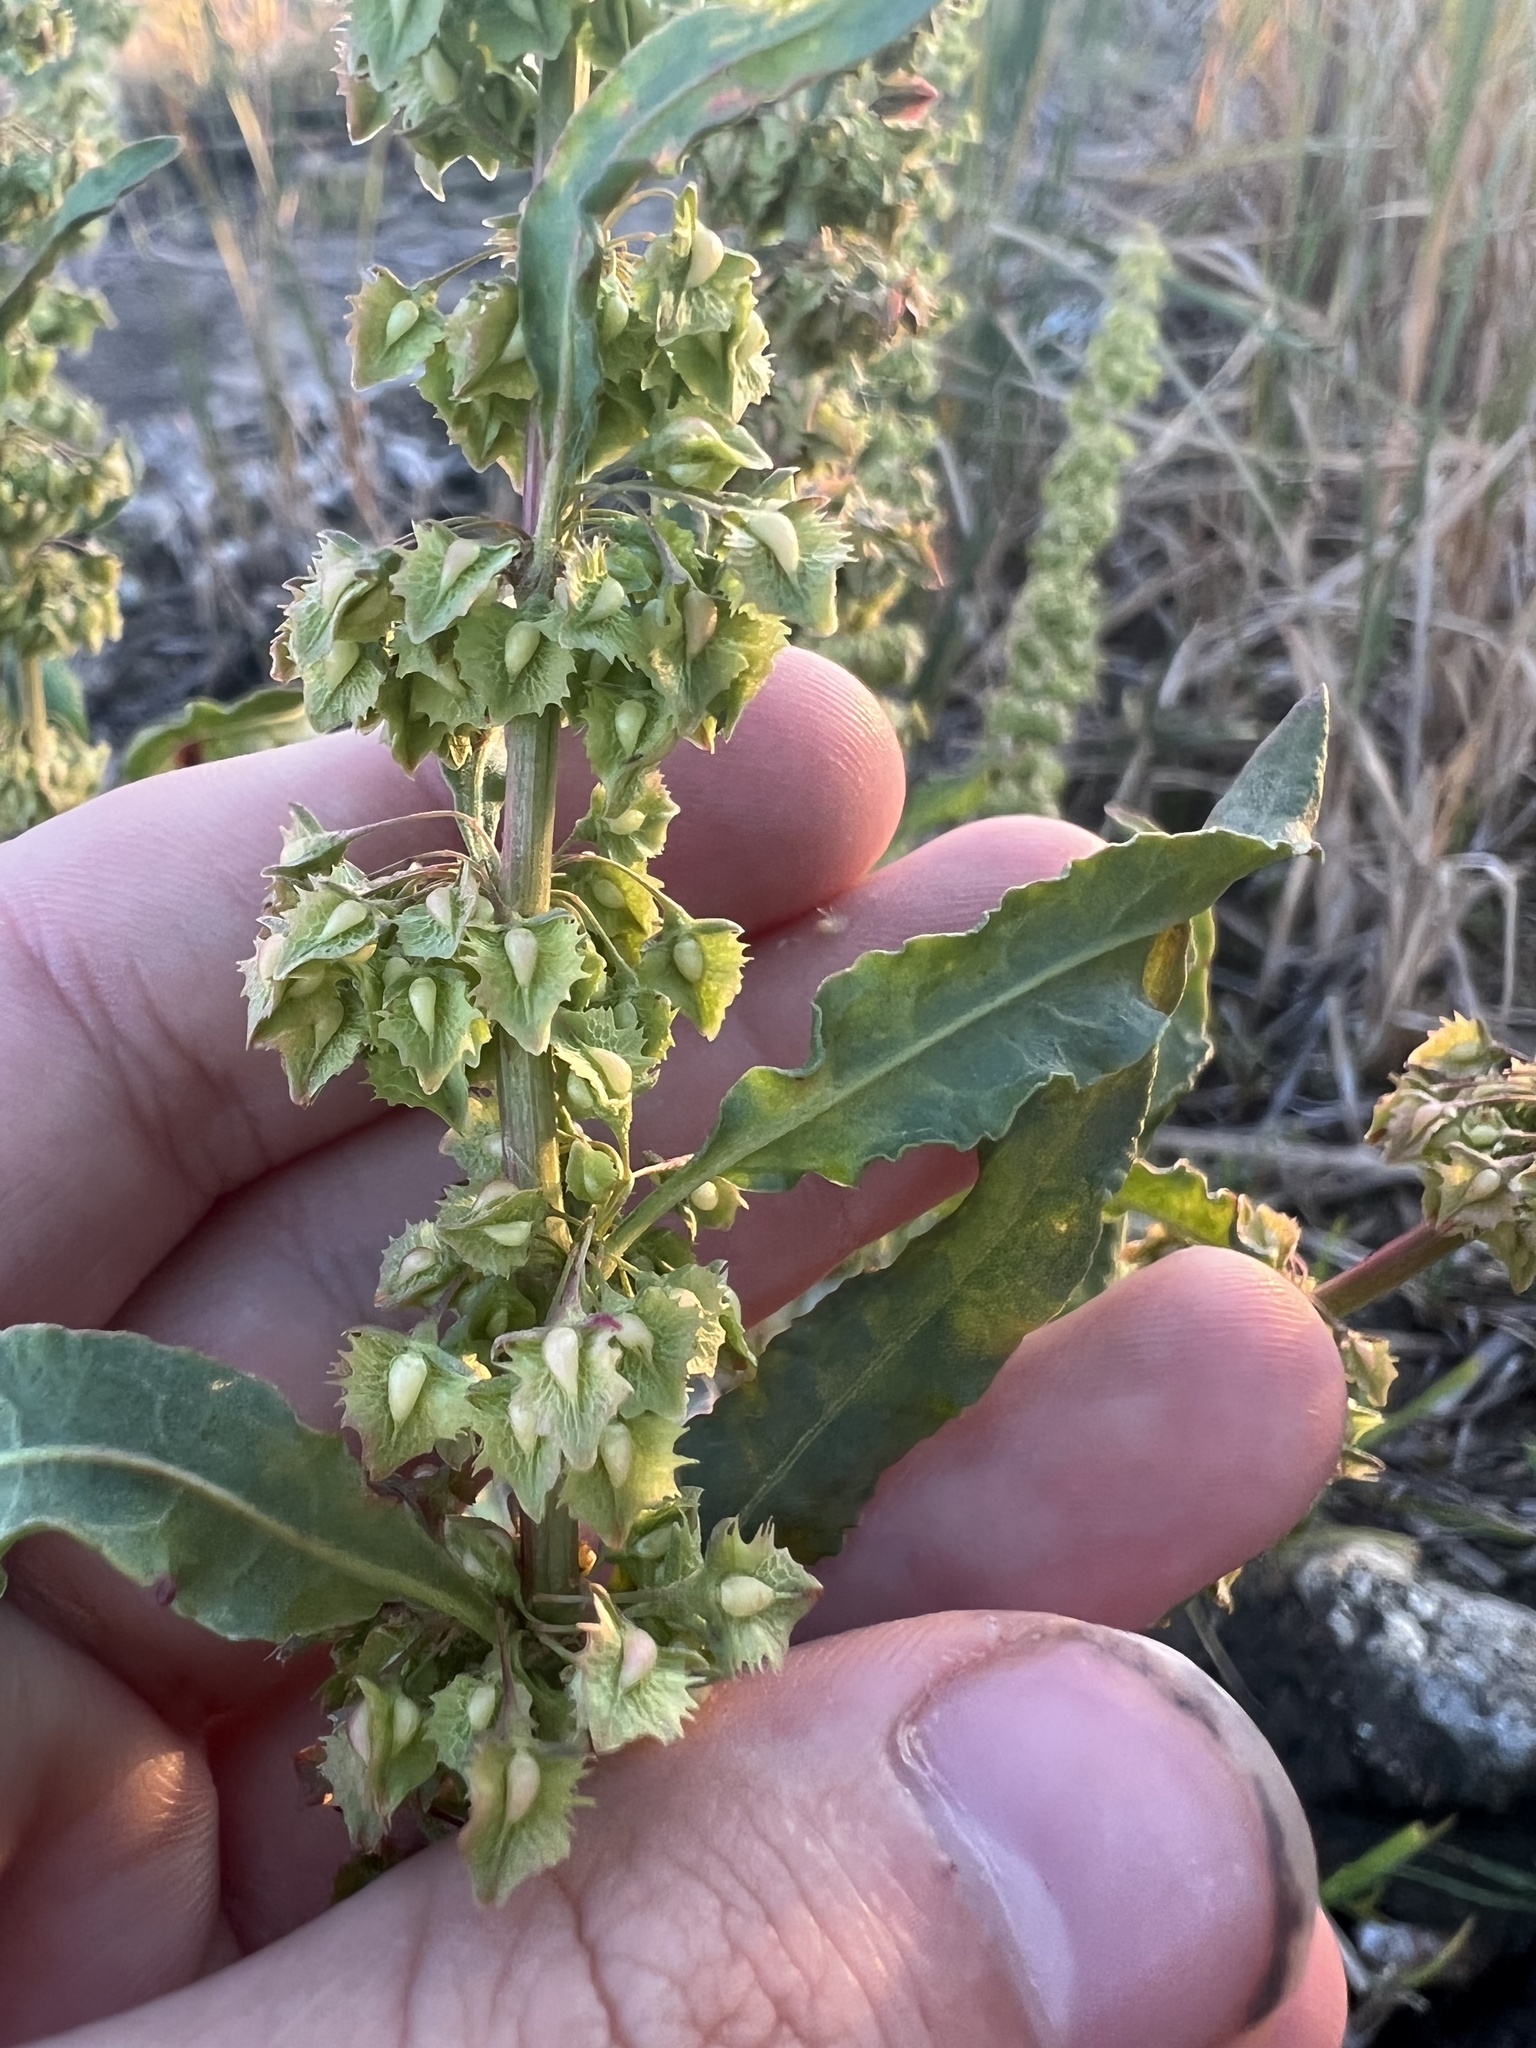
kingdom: Plantae
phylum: Tracheophyta
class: Magnoliopsida
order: Caryophyllales
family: Polygonaceae
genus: Rumex
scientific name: Rumex stenophyllus
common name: Narrowleaf dock
